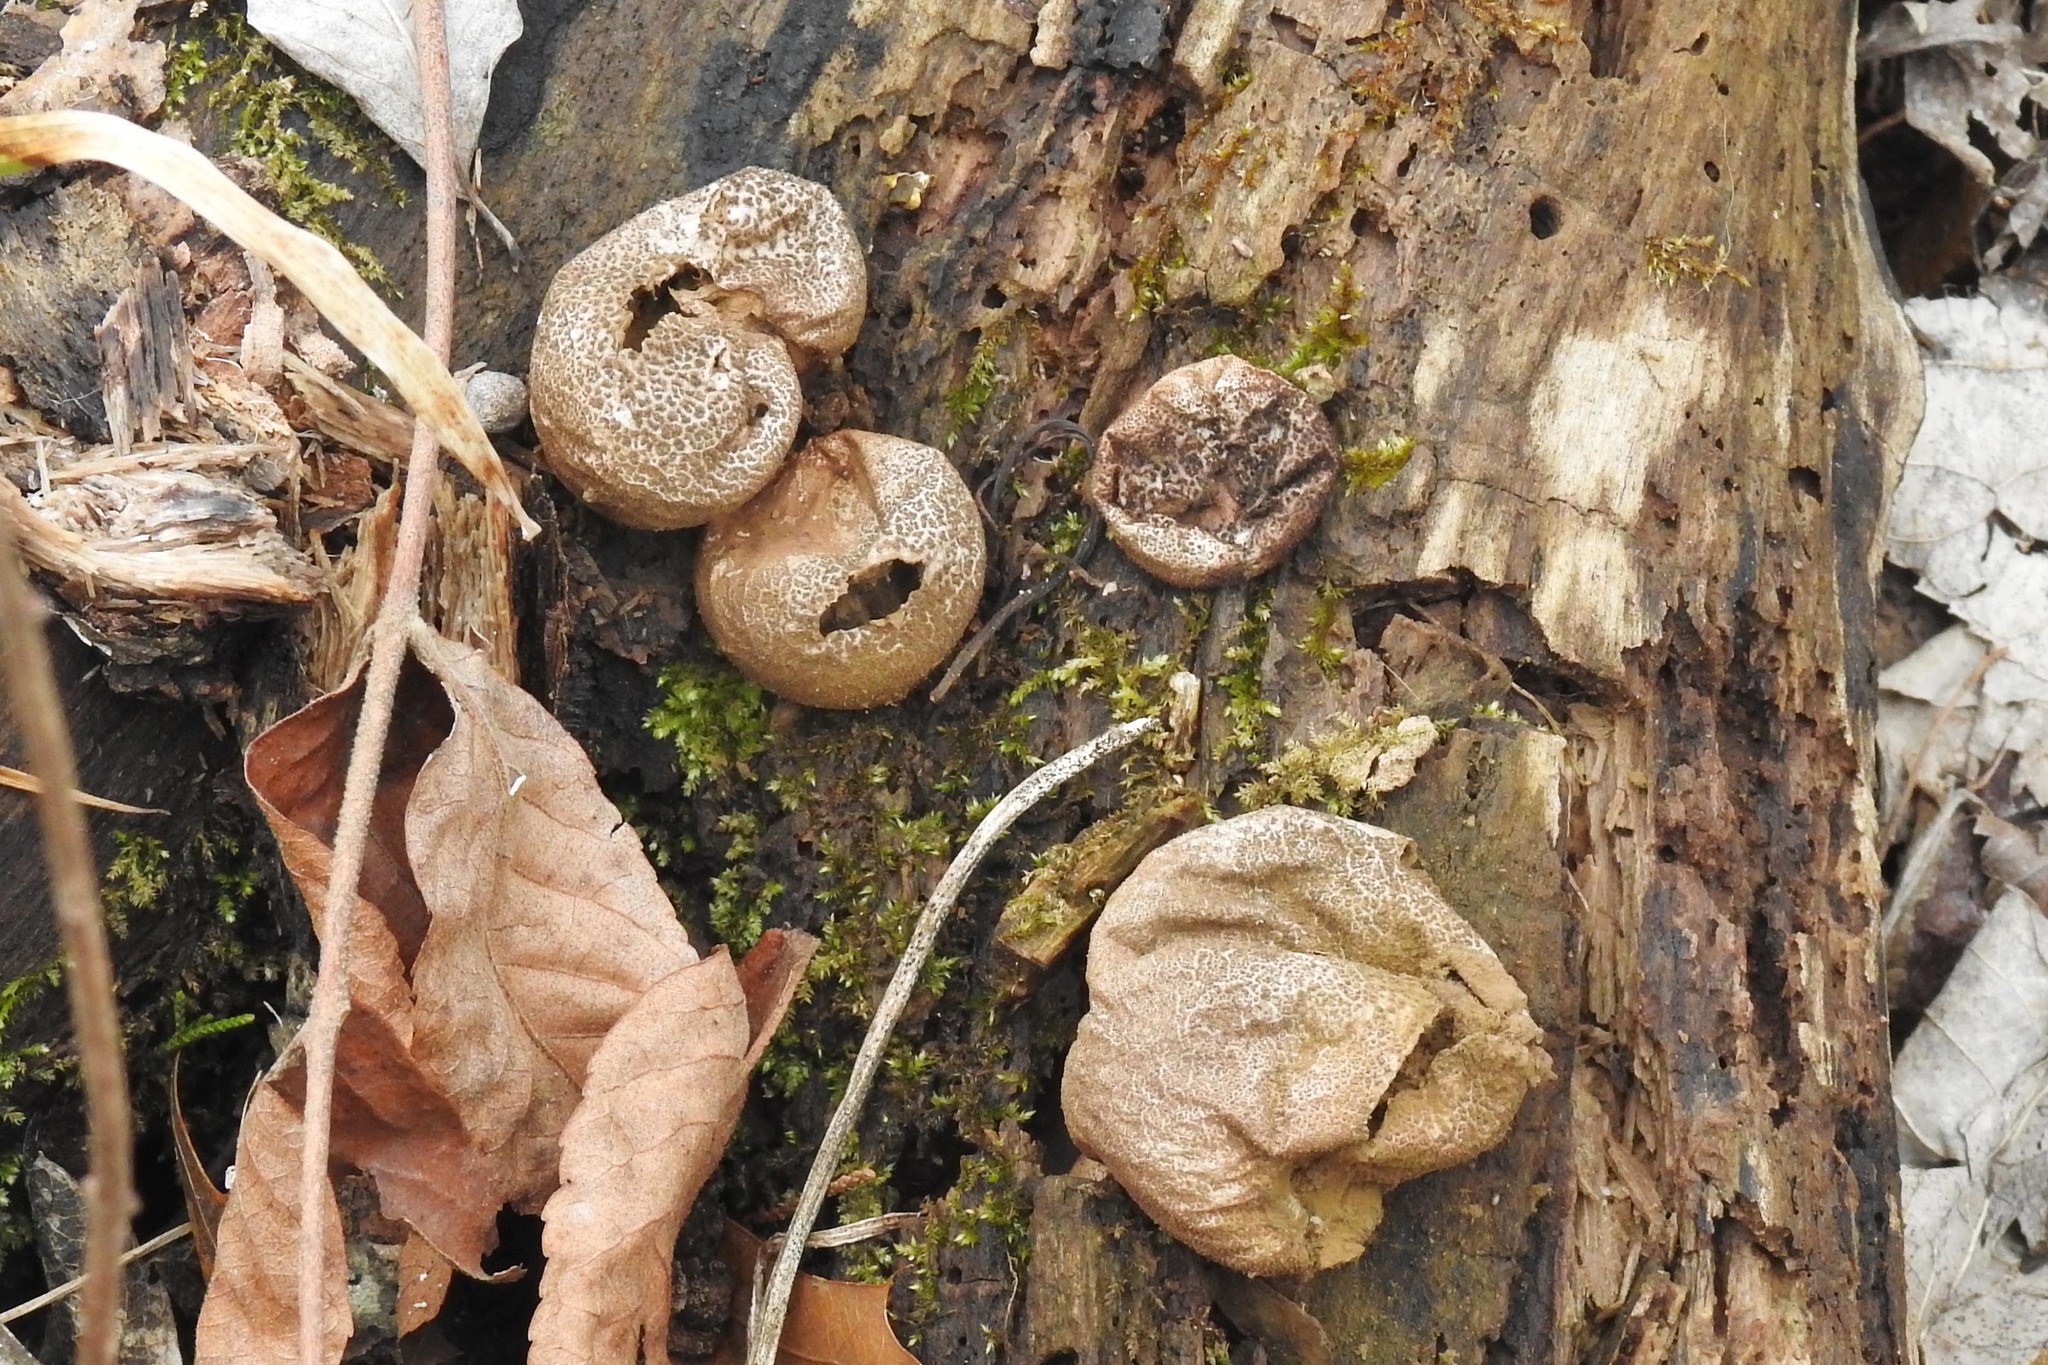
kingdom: Fungi
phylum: Basidiomycota
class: Agaricomycetes
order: Agaricales
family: Lycoperdaceae
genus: Apioperdon
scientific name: Apioperdon pyriforme
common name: Pear-shaped puffball
